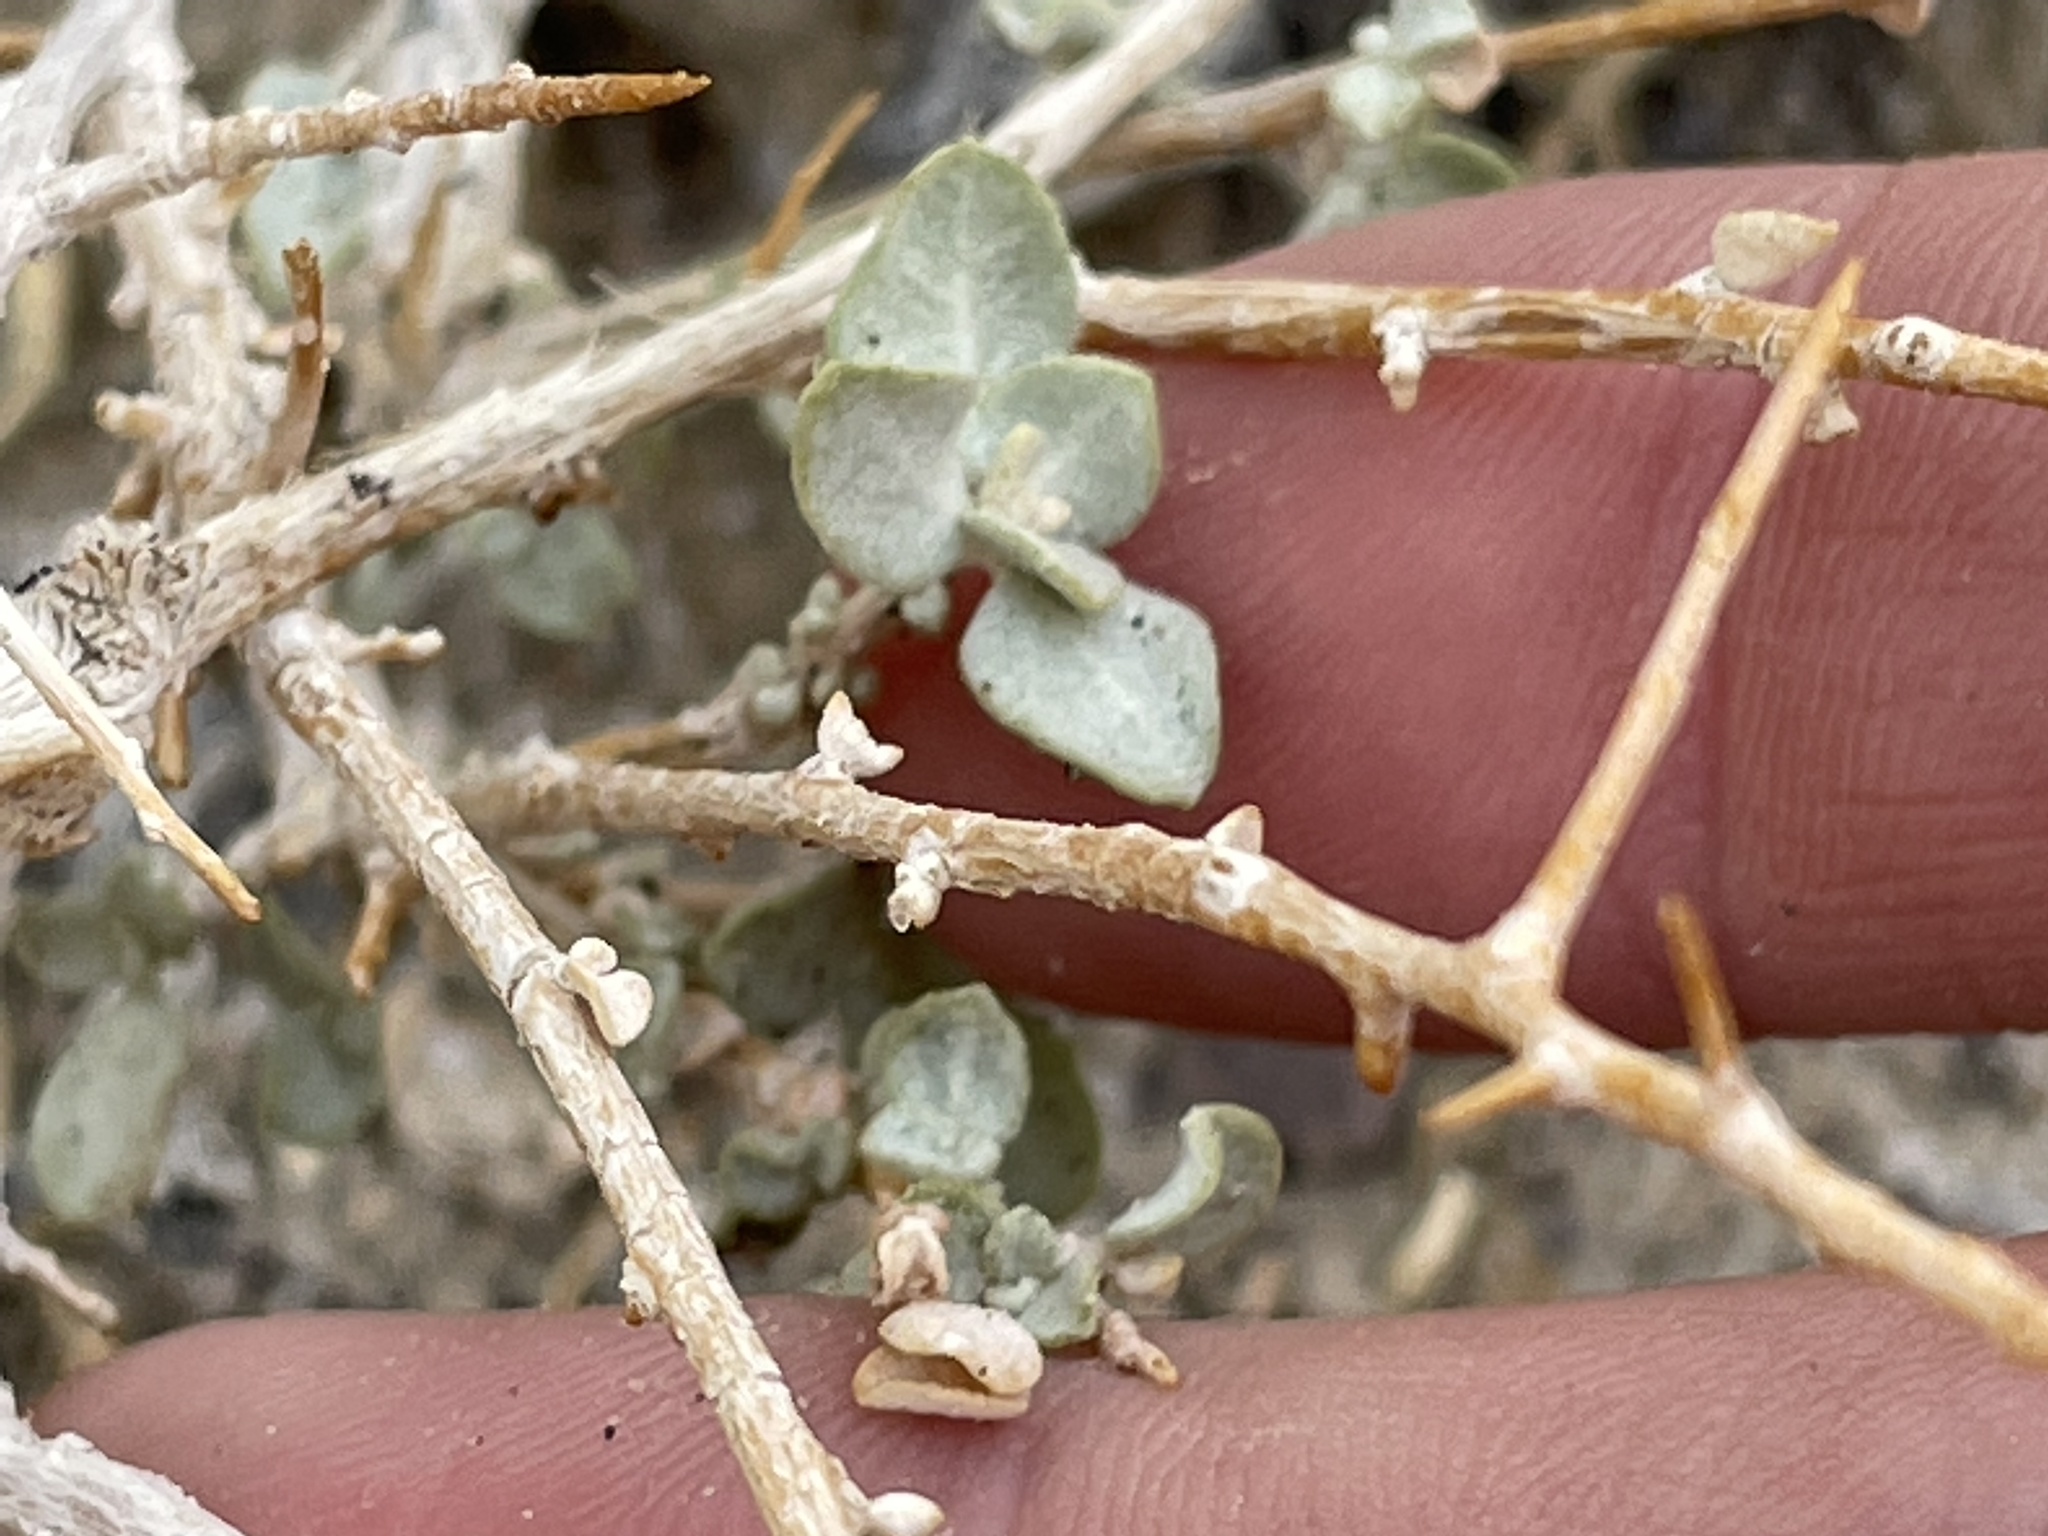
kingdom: Plantae
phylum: Tracheophyta
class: Magnoliopsida
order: Caryophyllales
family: Amaranthaceae
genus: Atriplex
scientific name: Atriplex confertifolia
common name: Shadscale
